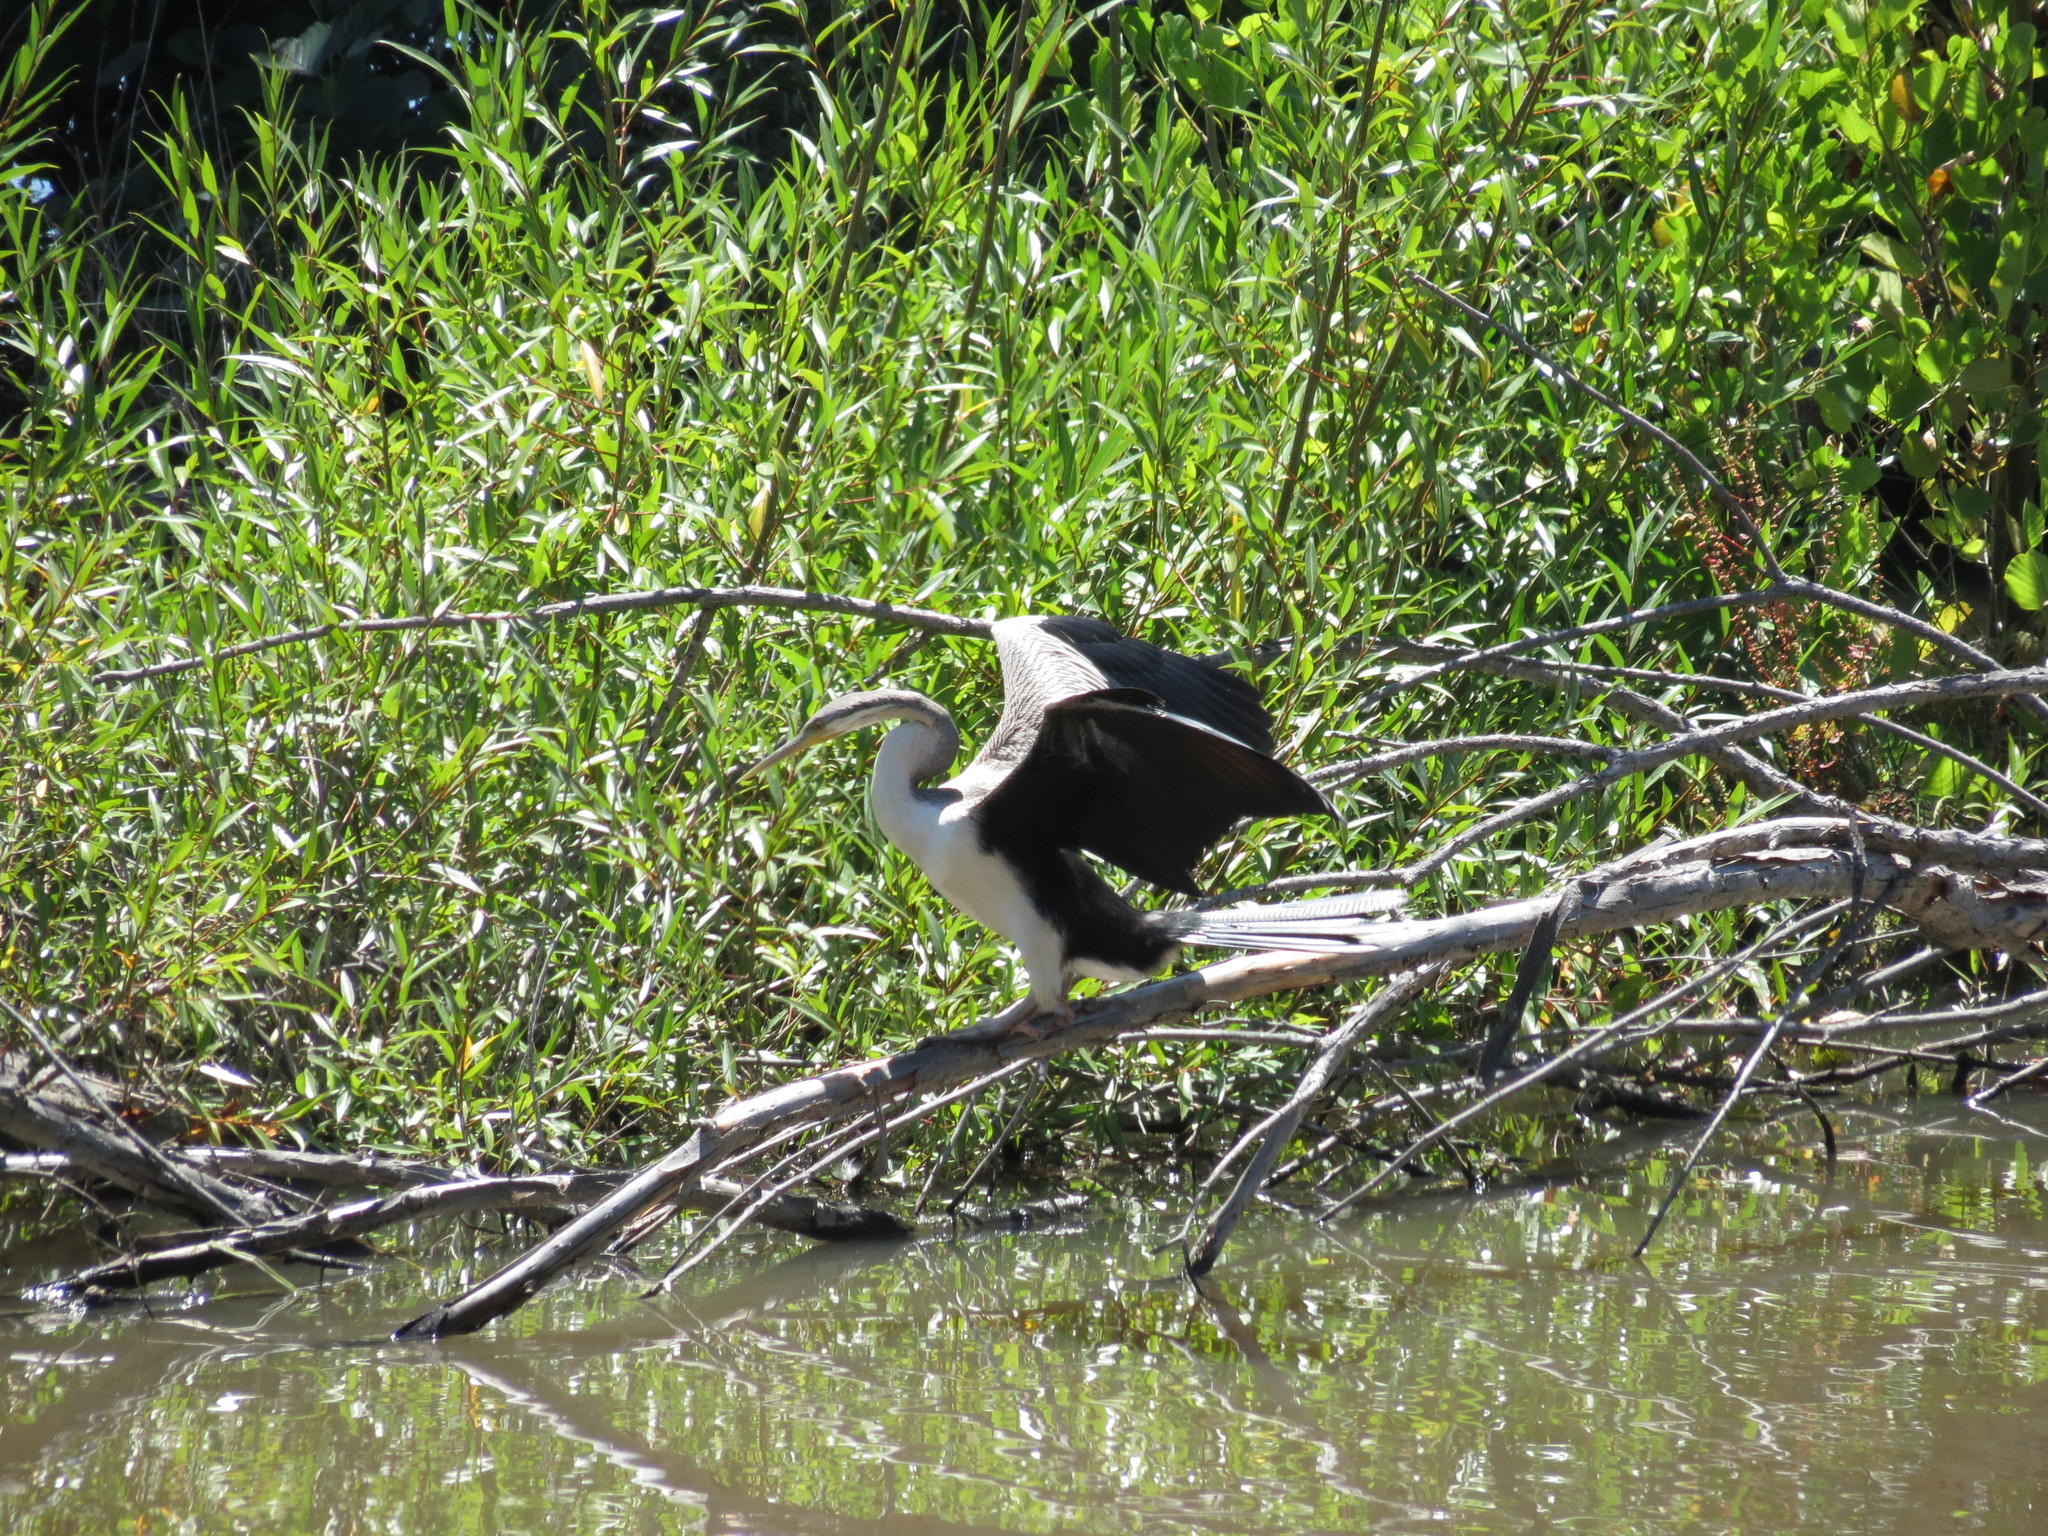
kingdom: Animalia
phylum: Chordata
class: Aves
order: Suliformes
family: Anhingidae
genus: Anhinga
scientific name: Anhinga novaehollandiae
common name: Australasian darter
